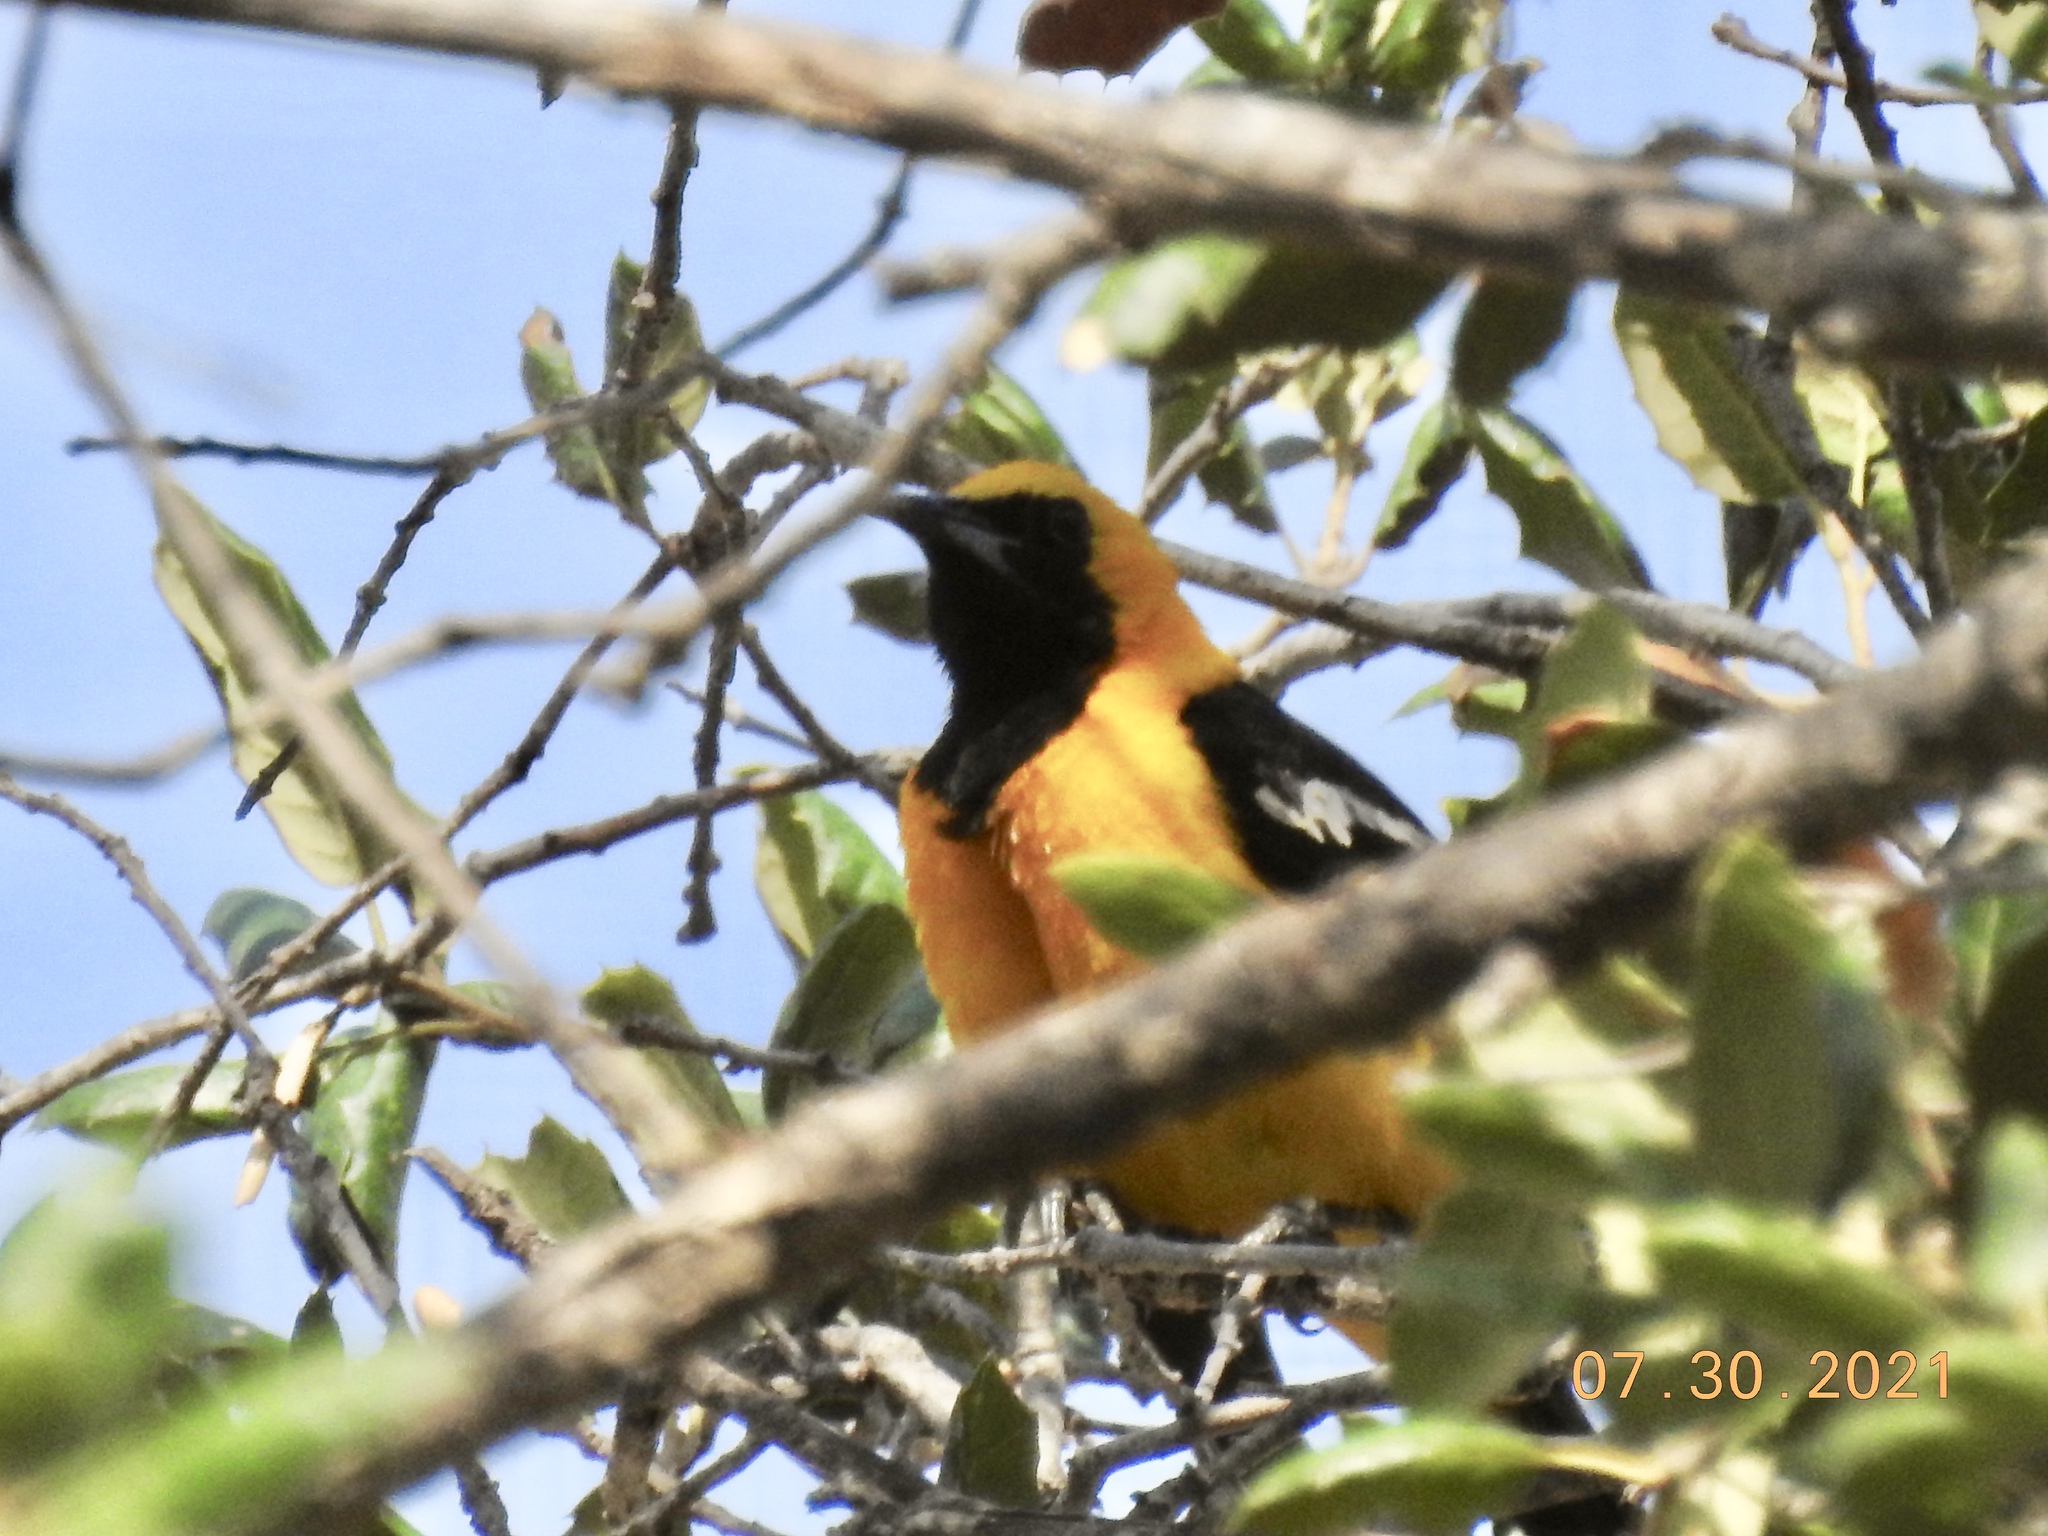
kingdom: Animalia
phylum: Chordata
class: Aves
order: Passeriformes
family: Icteridae
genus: Icterus
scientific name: Icterus cucullatus
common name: Hooded oriole
